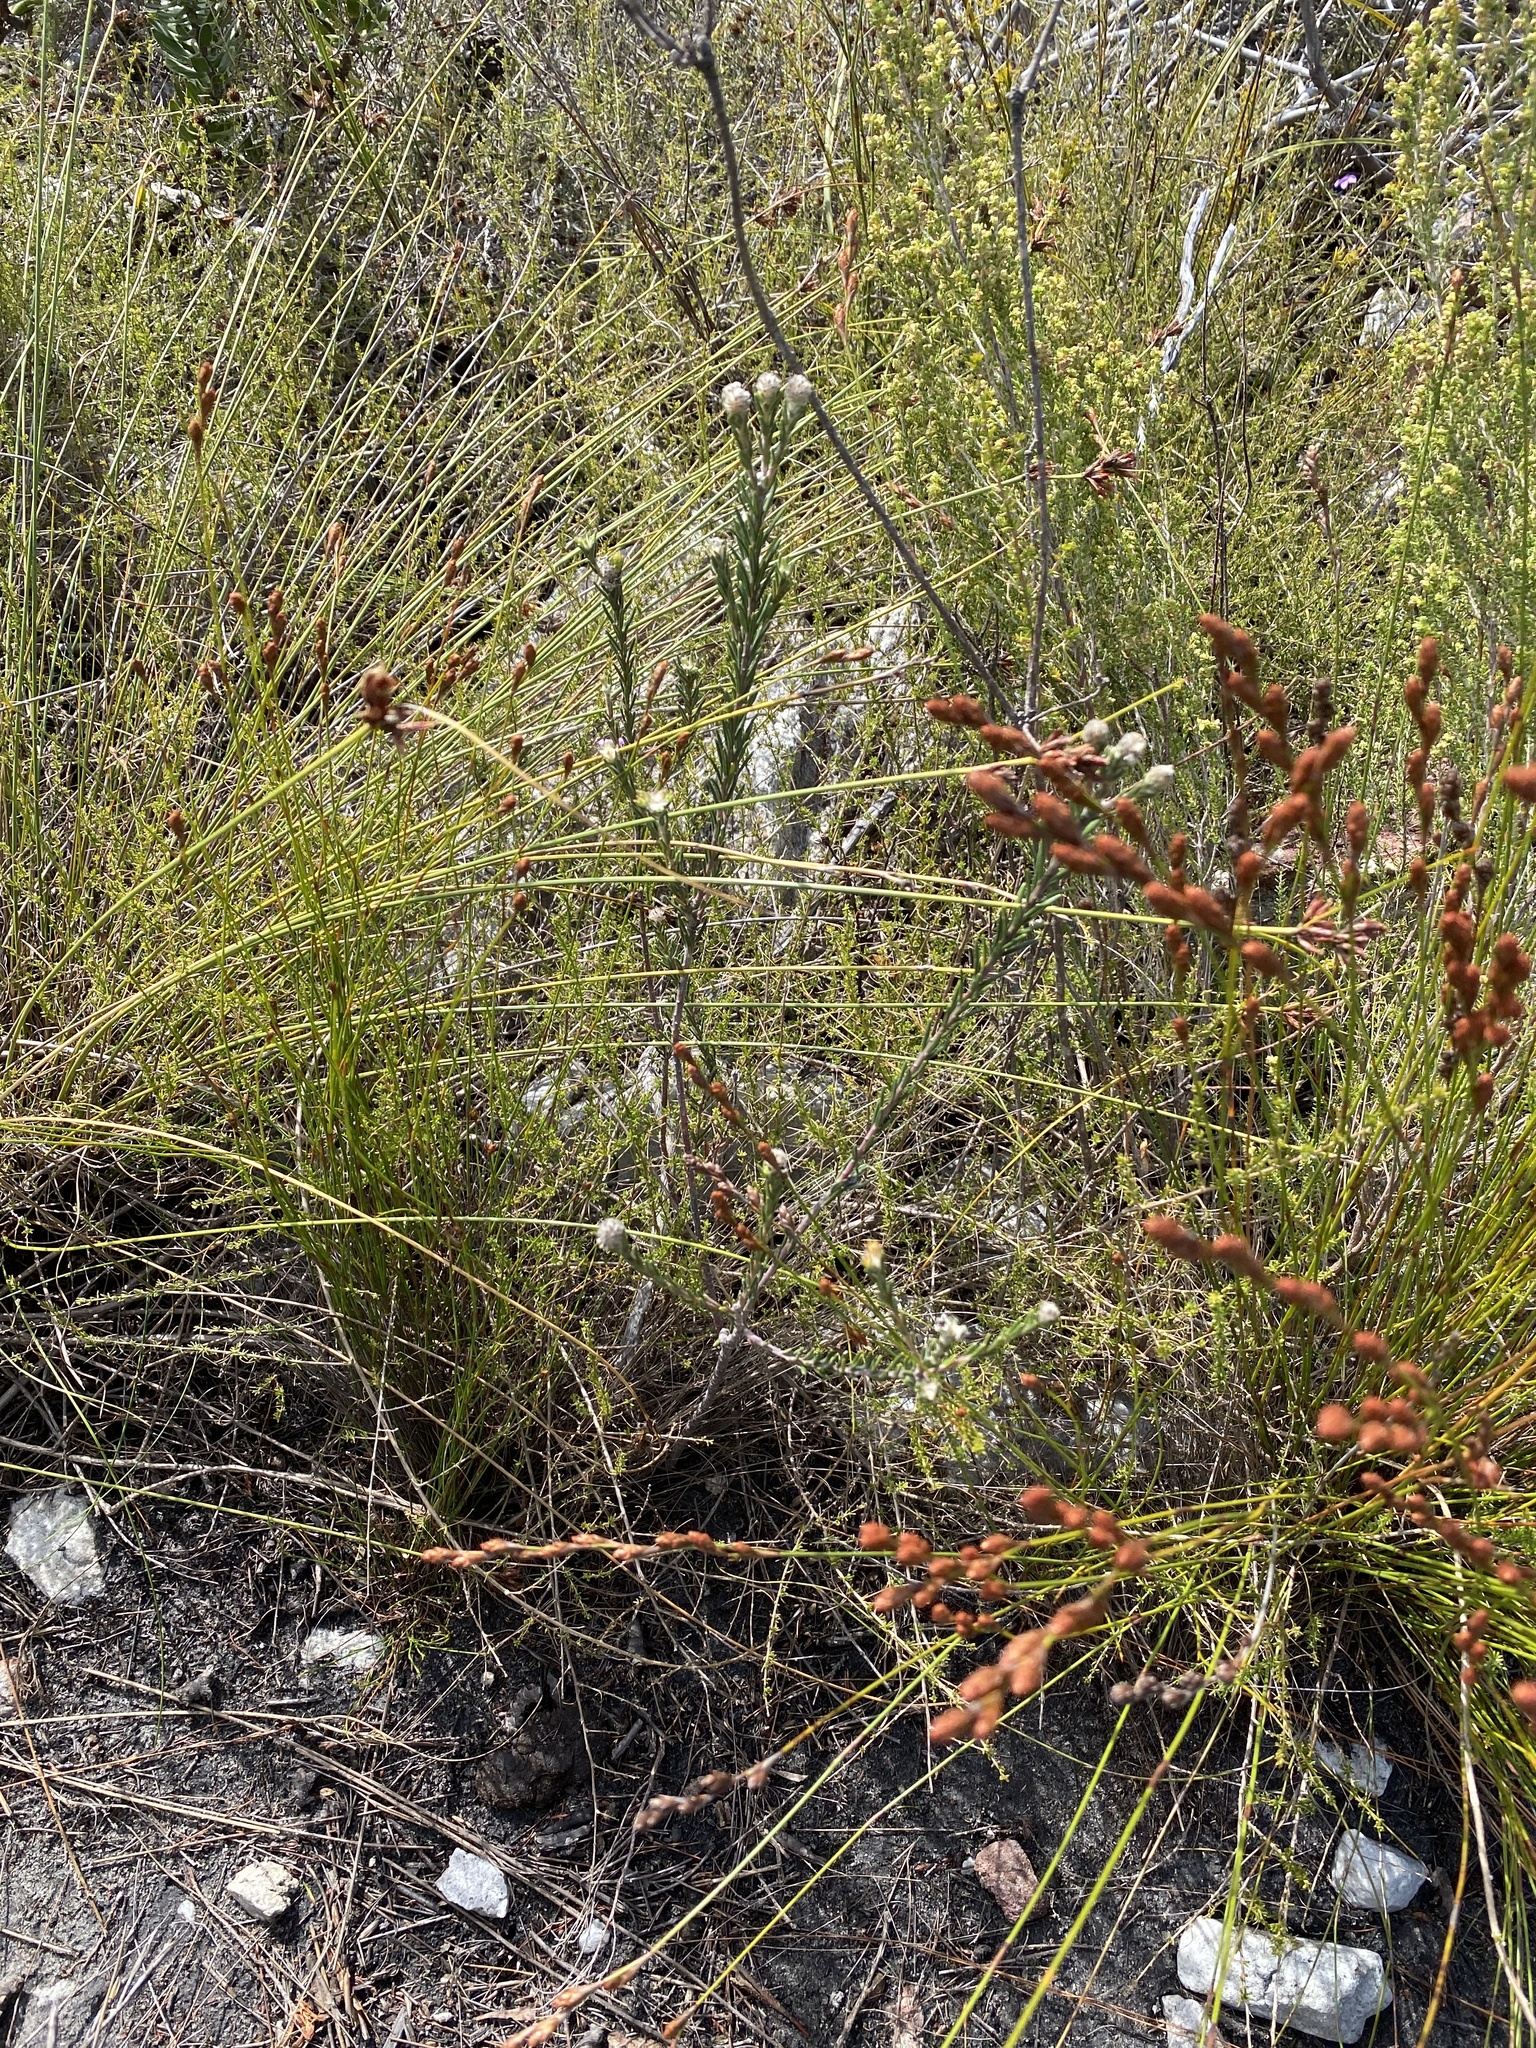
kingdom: Plantae
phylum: Tracheophyta
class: Magnoliopsida
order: Rosales
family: Rhamnaceae
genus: Phylica
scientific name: Phylica imberbis
